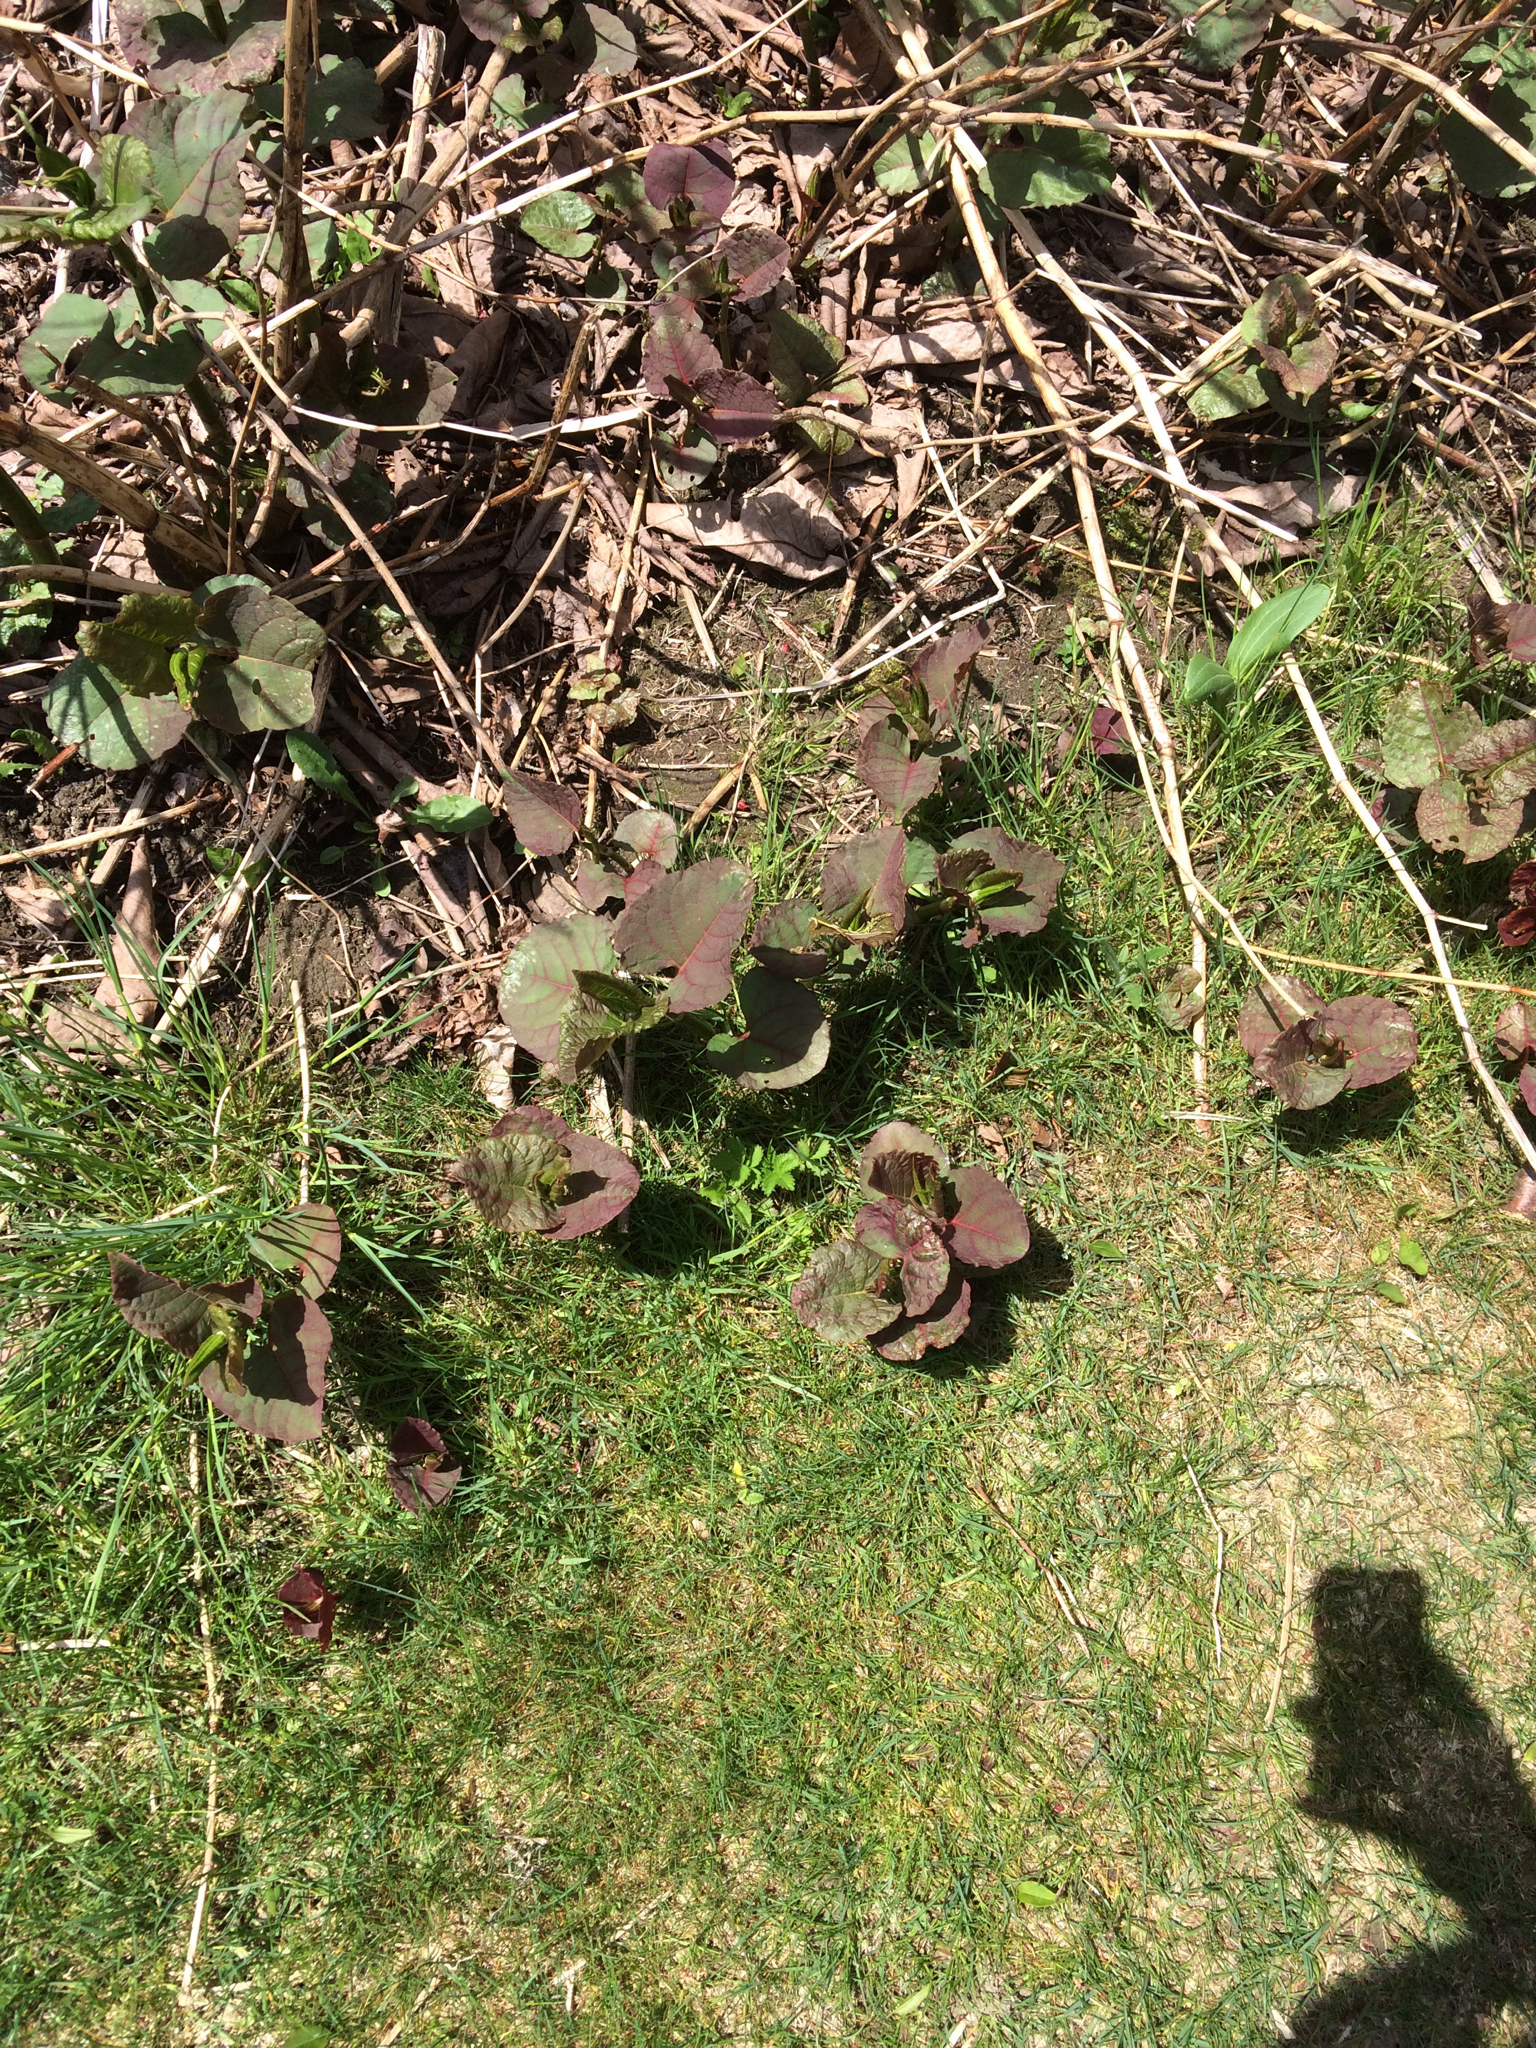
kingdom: Plantae
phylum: Tracheophyta
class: Magnoliopsida
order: Caryophyllales
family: Polygonaceae
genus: Reynoutria
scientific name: Reynoutria japonica
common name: Japanese knotweed
